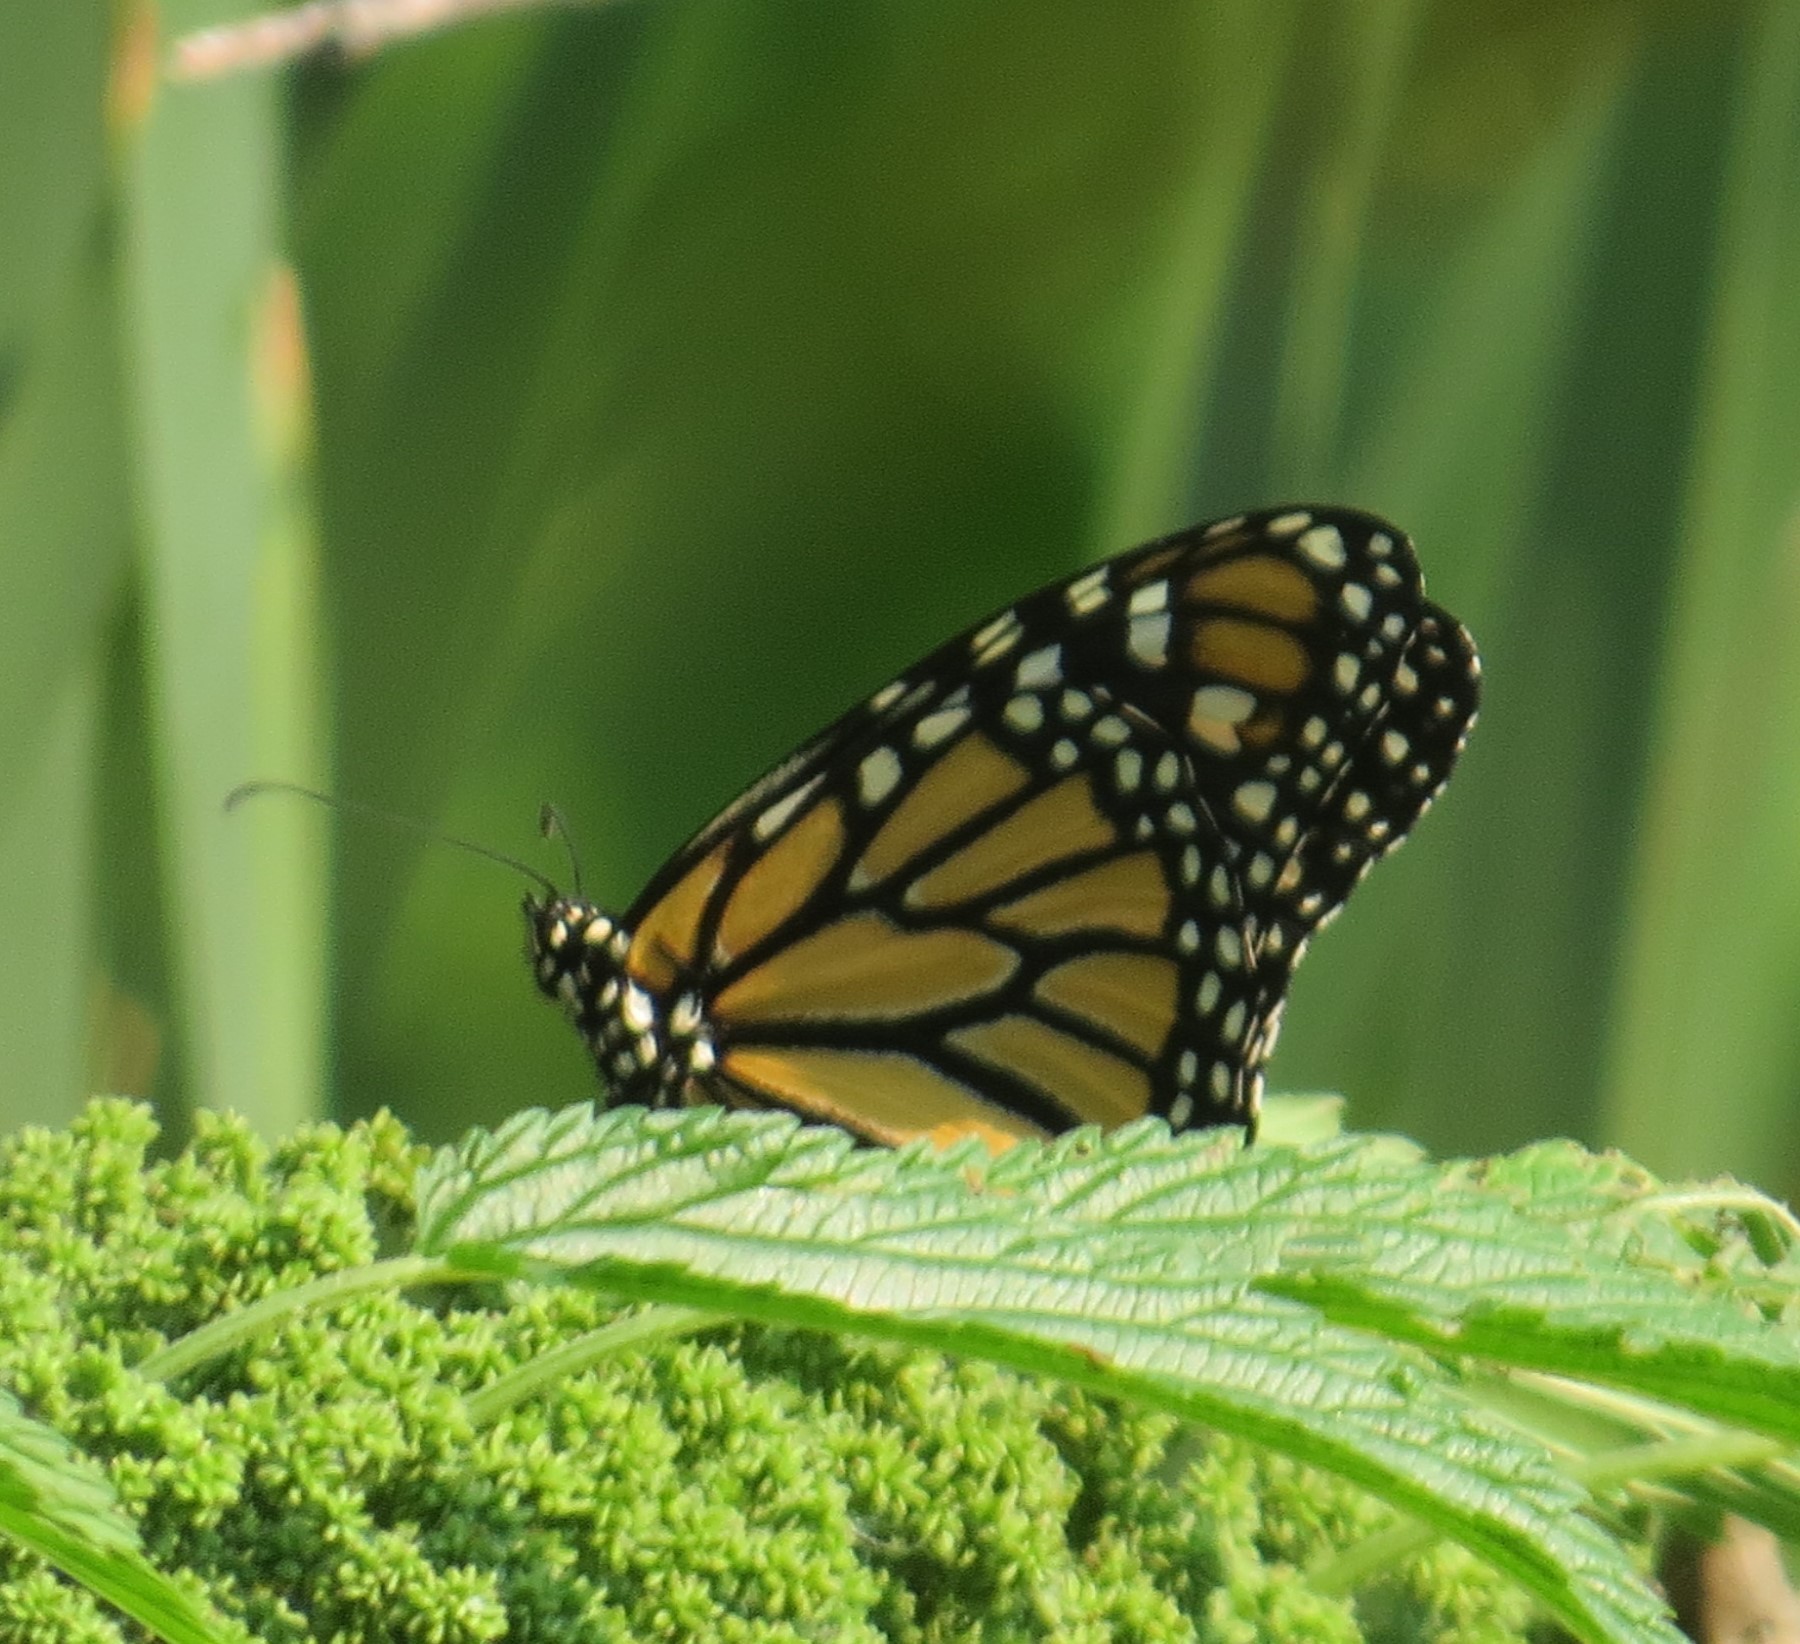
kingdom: Animalia
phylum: Arthropoda
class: Insecta
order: Lepidoptera
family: Nymphalidae
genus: Danaus
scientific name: Danaus plexippus
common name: Monarch
